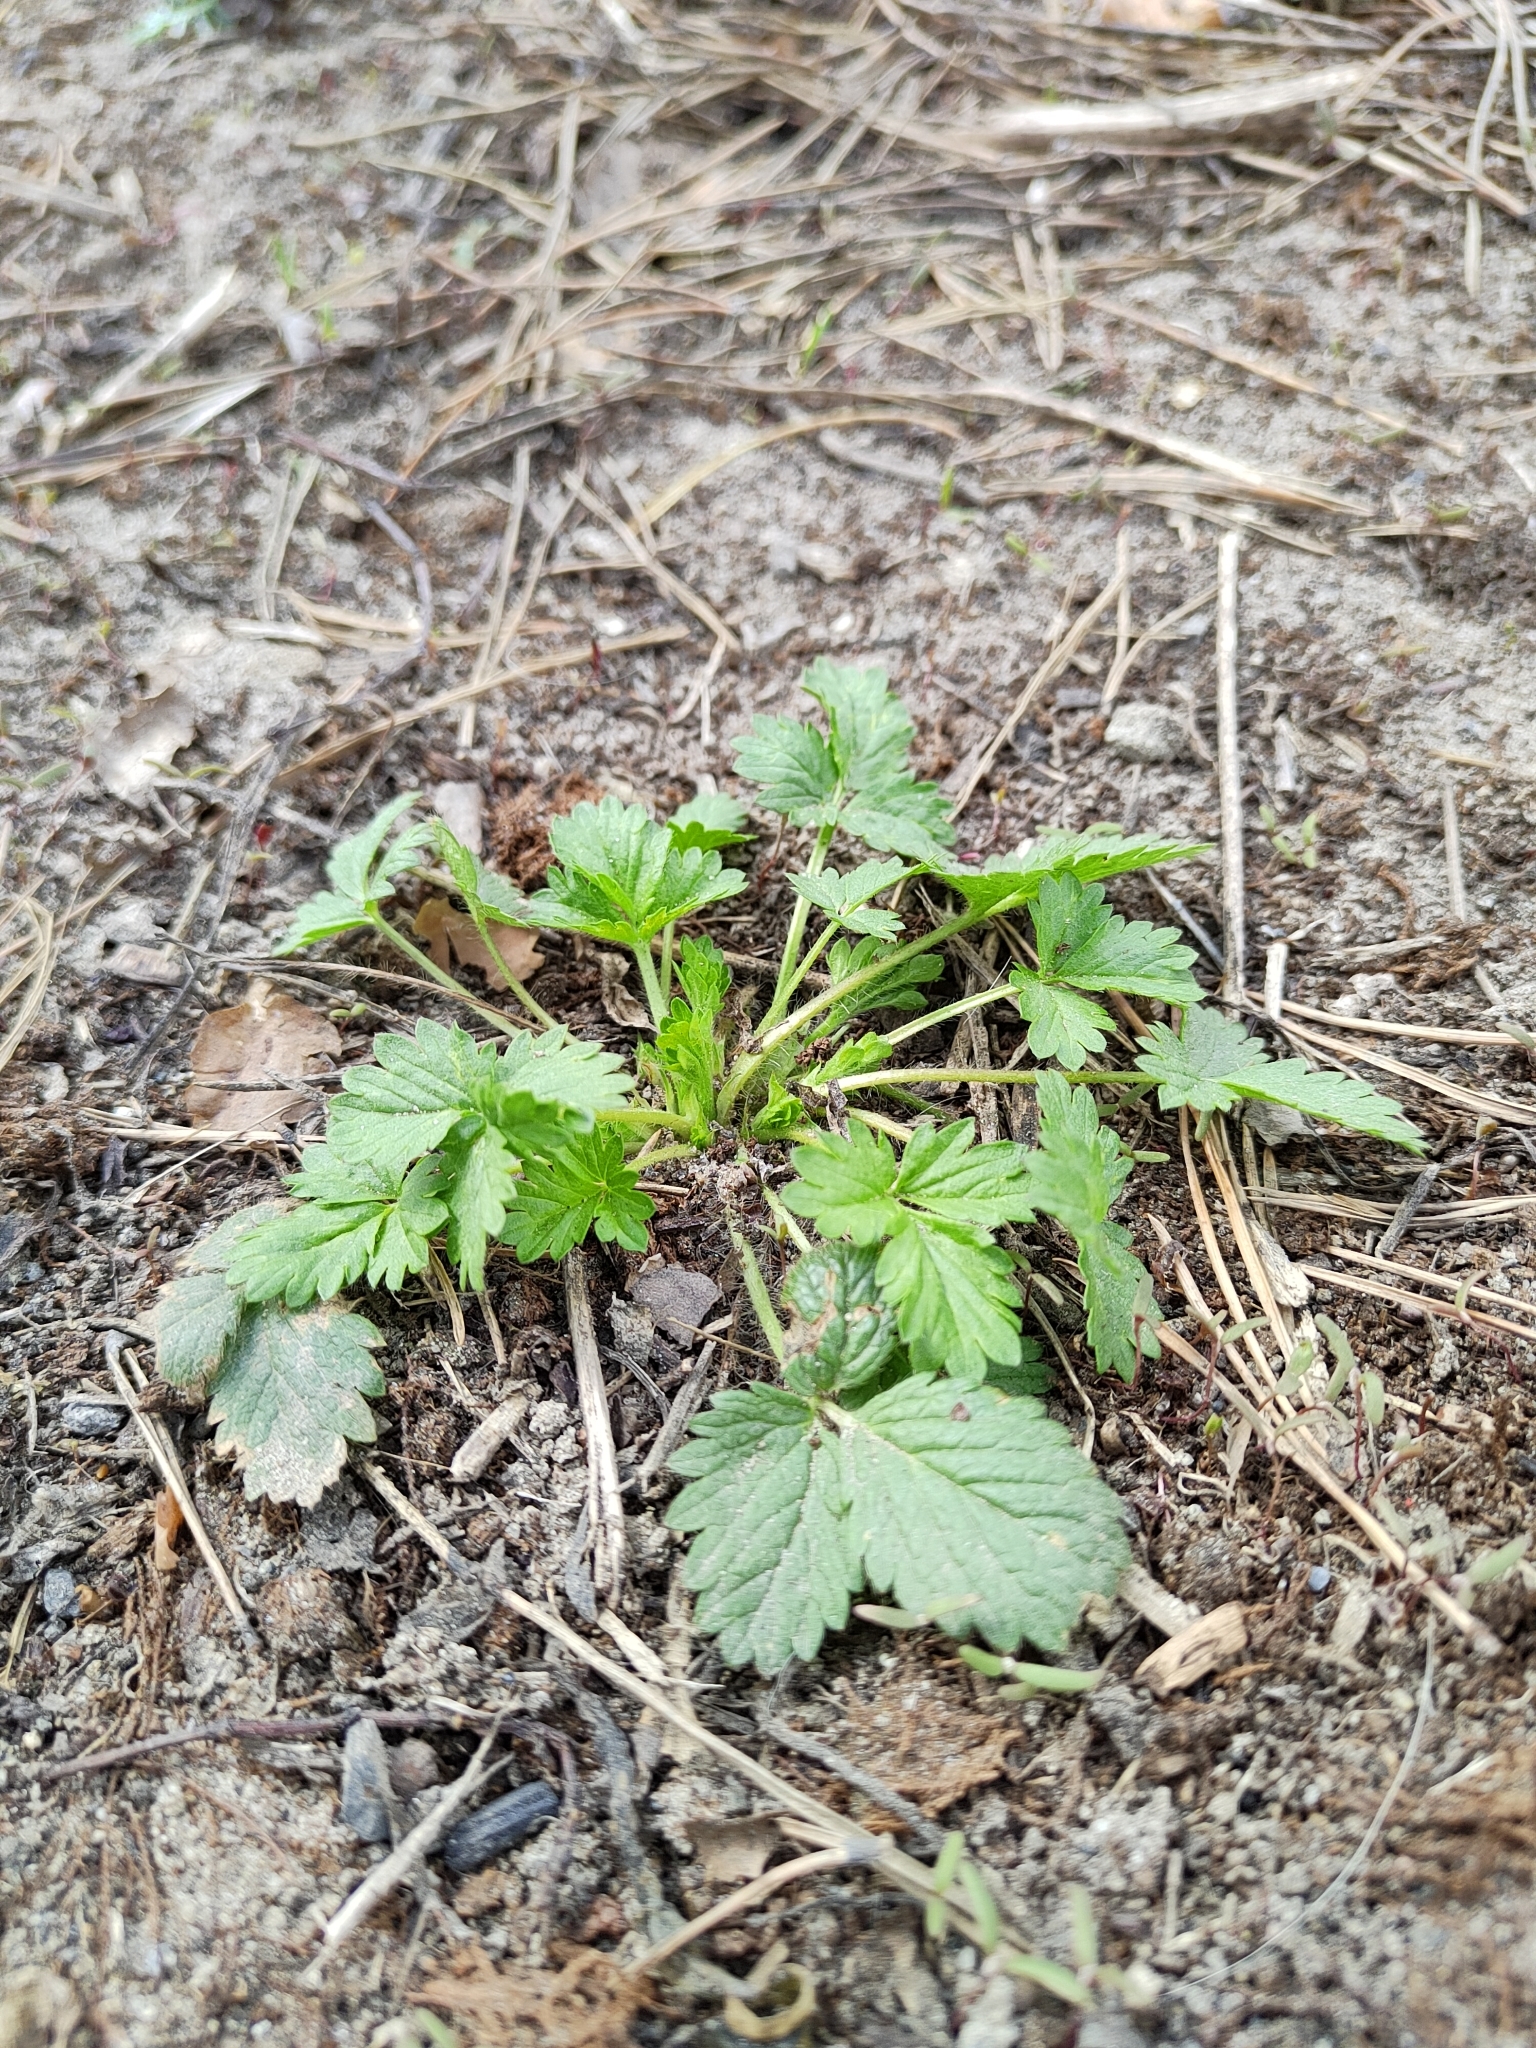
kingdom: Plantae
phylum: Tracheophyta
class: Magnoliopsida
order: Rosales
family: Rosaceae
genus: Potentilla
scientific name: Potentilla norvegica
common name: Ternate-leaved cinquefoil
